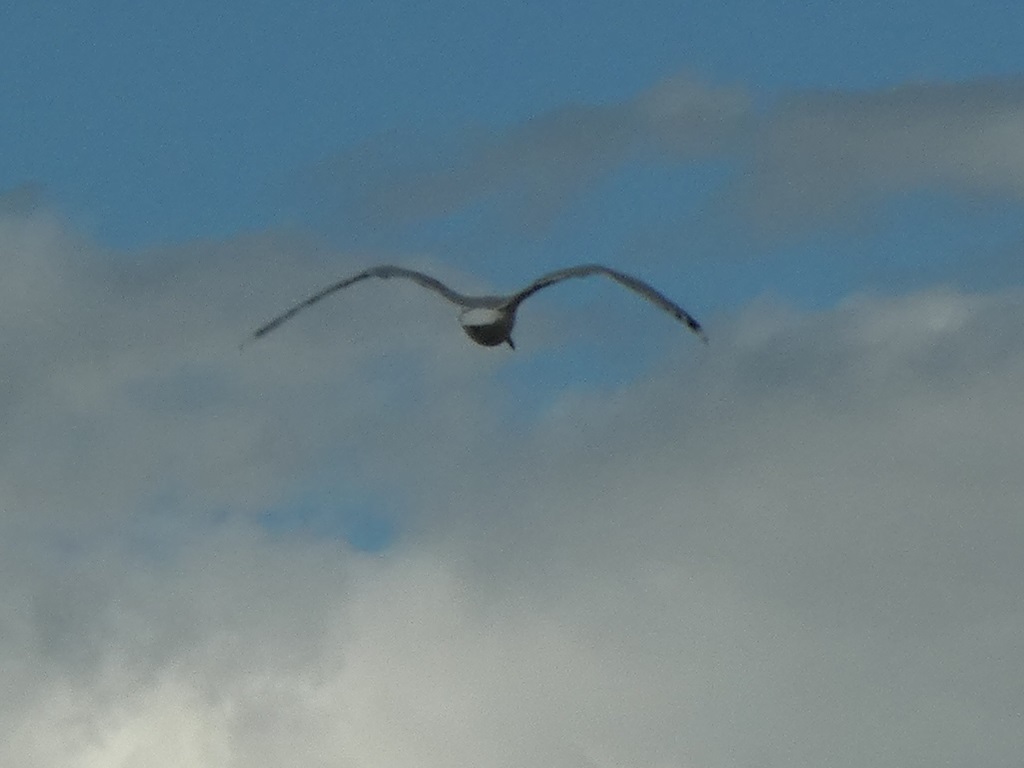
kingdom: Animalia
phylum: Chordata
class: Aves
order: Charadriiformes
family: Laridae
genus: Larus
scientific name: Larus canus
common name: Mew gull
